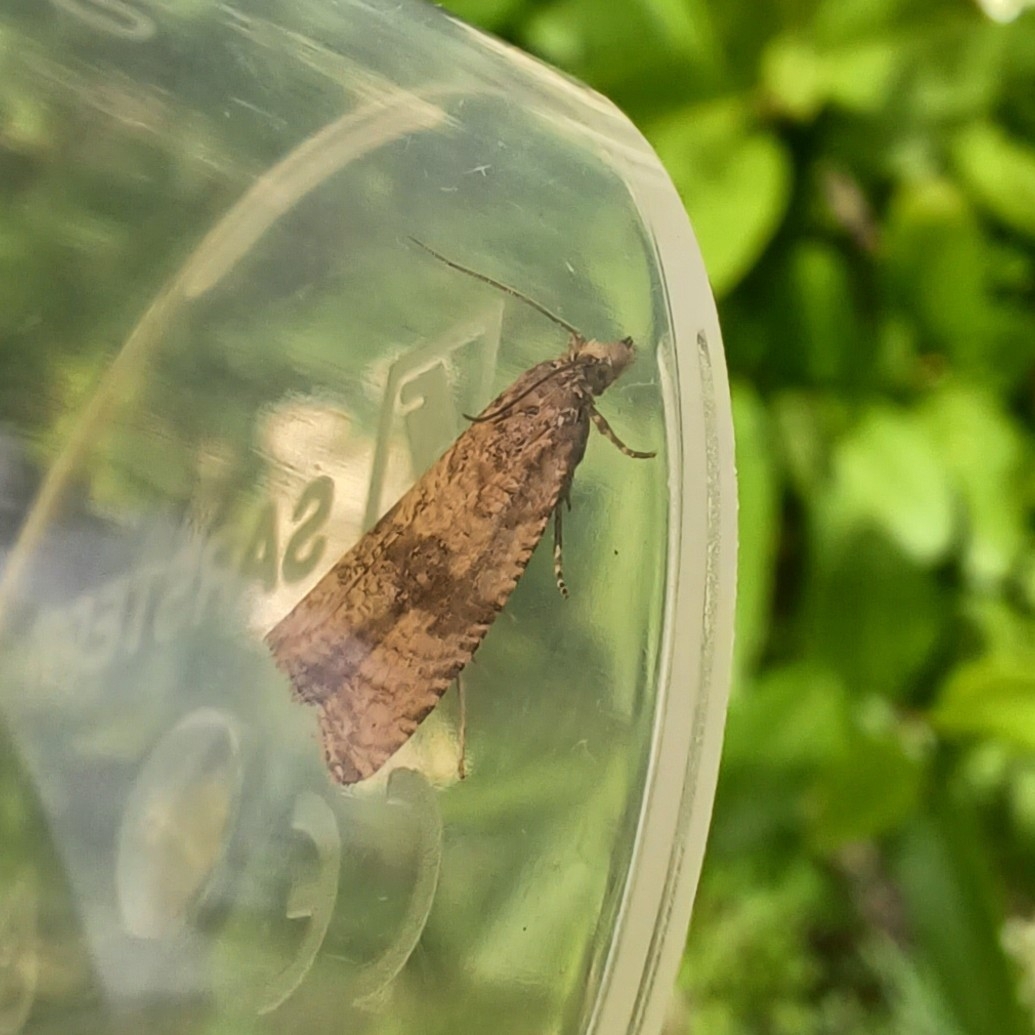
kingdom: Animalia
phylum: Arthropoda
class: Insecta
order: Lepidoptera
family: Tortricidae
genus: Celypha
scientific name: Celypha striana
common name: Barred marble
